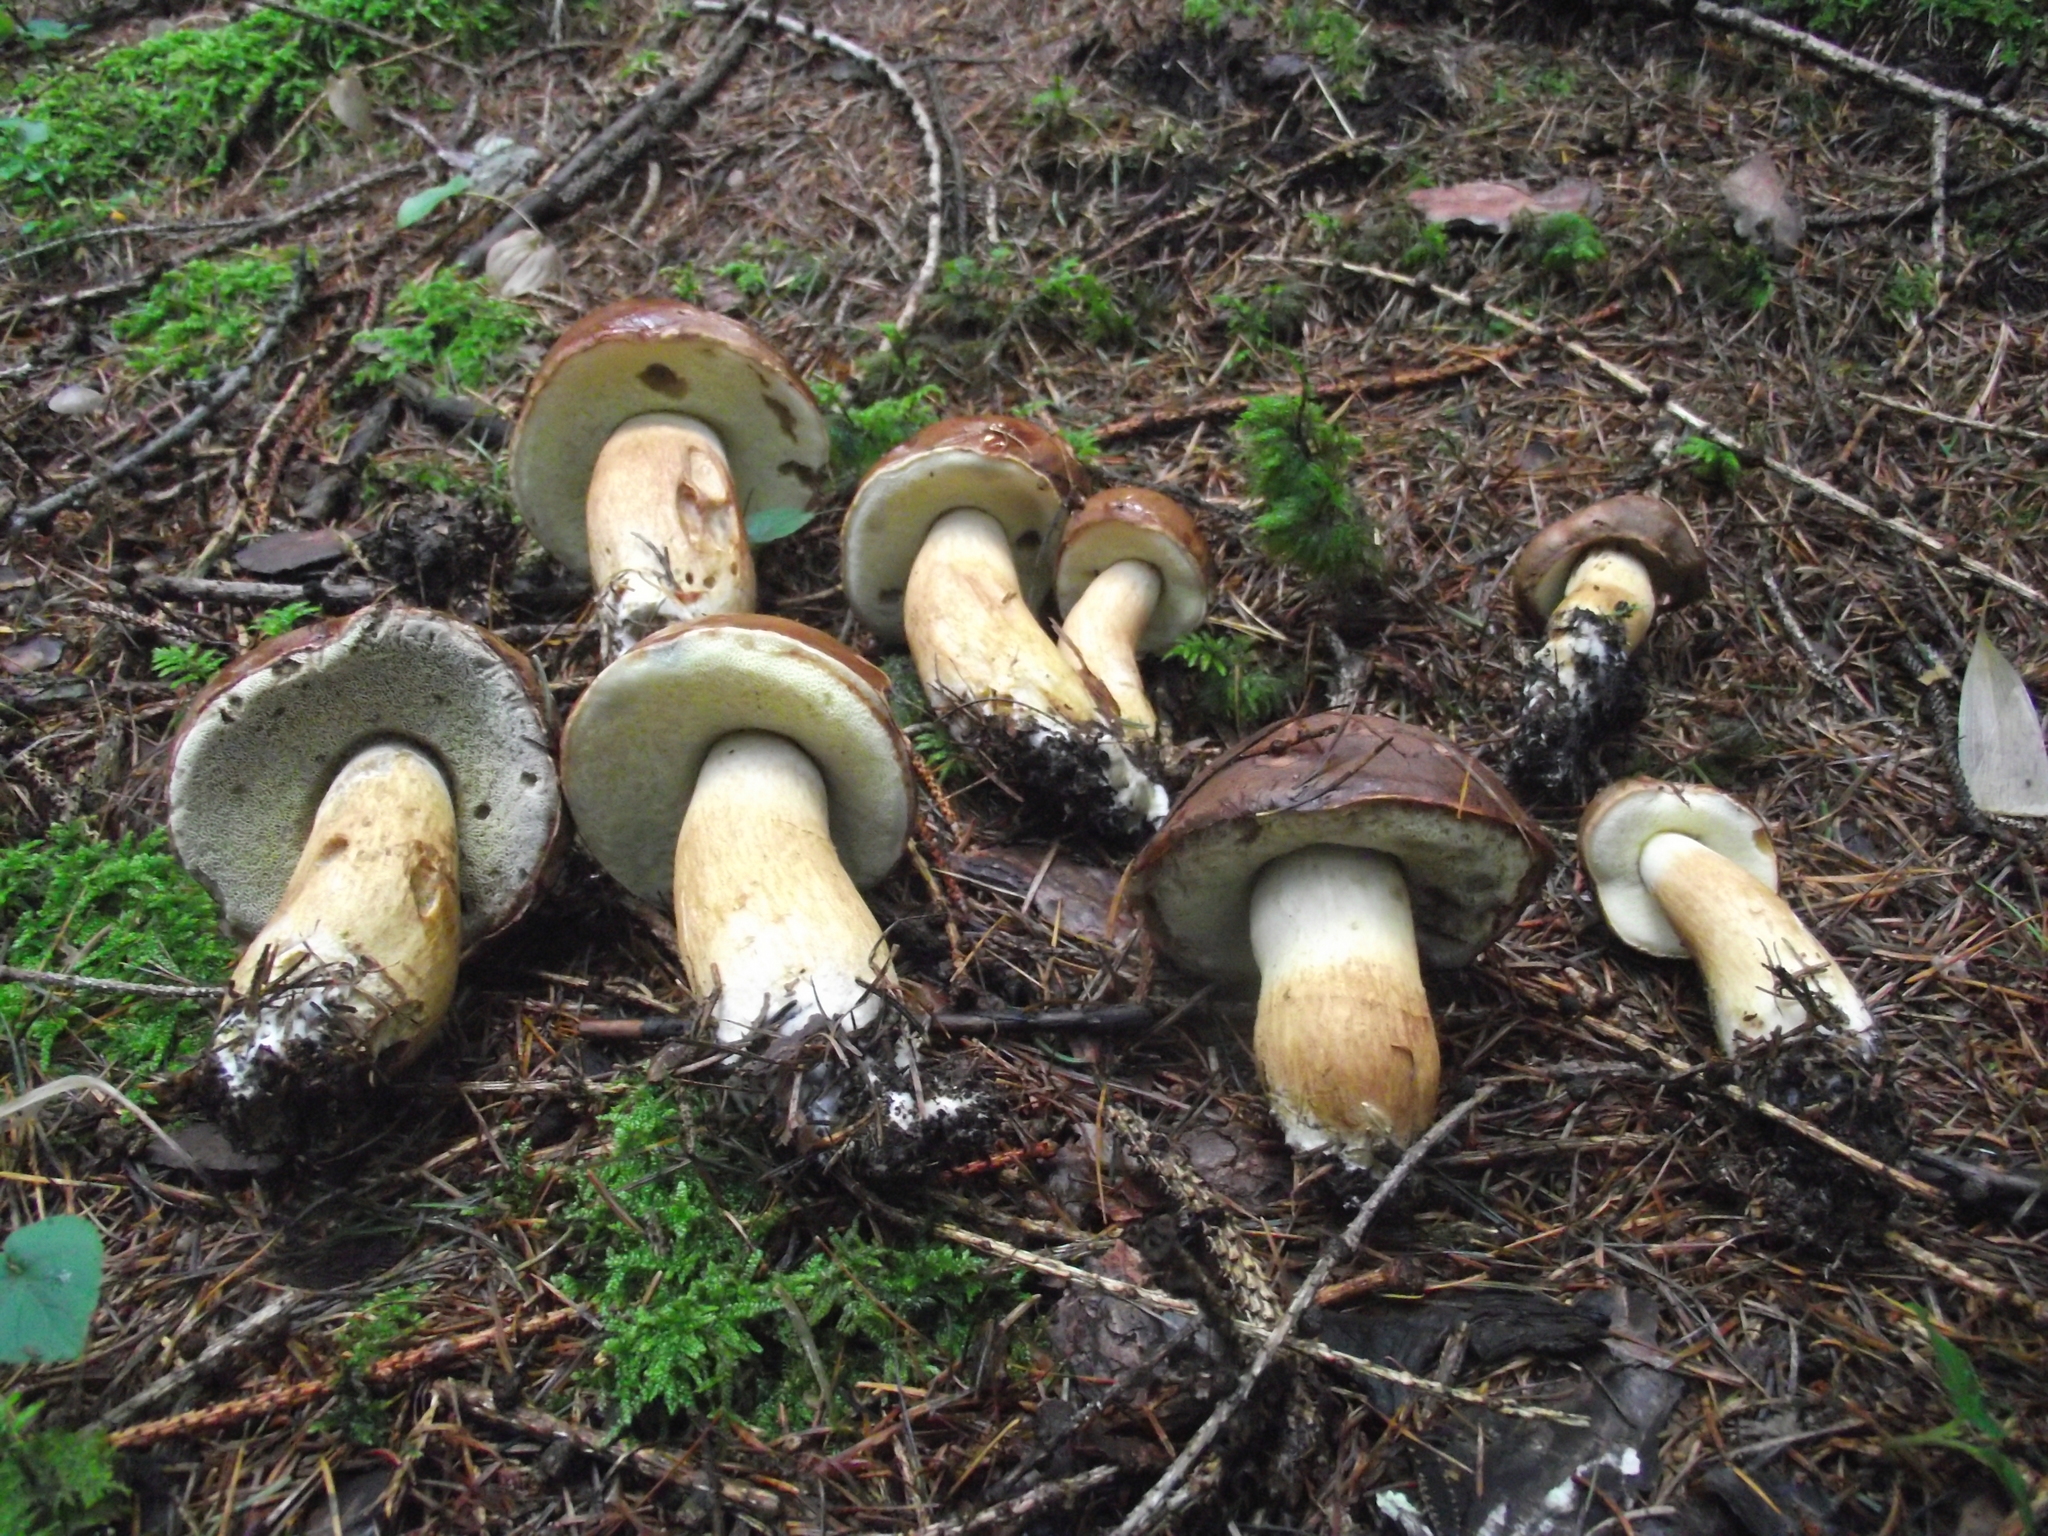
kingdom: Fungi
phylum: Basidiomycota
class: Agaricomycetes
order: Boletales
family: Boletaceae
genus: Imleria
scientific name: Imleria badia
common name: Bay bolete
